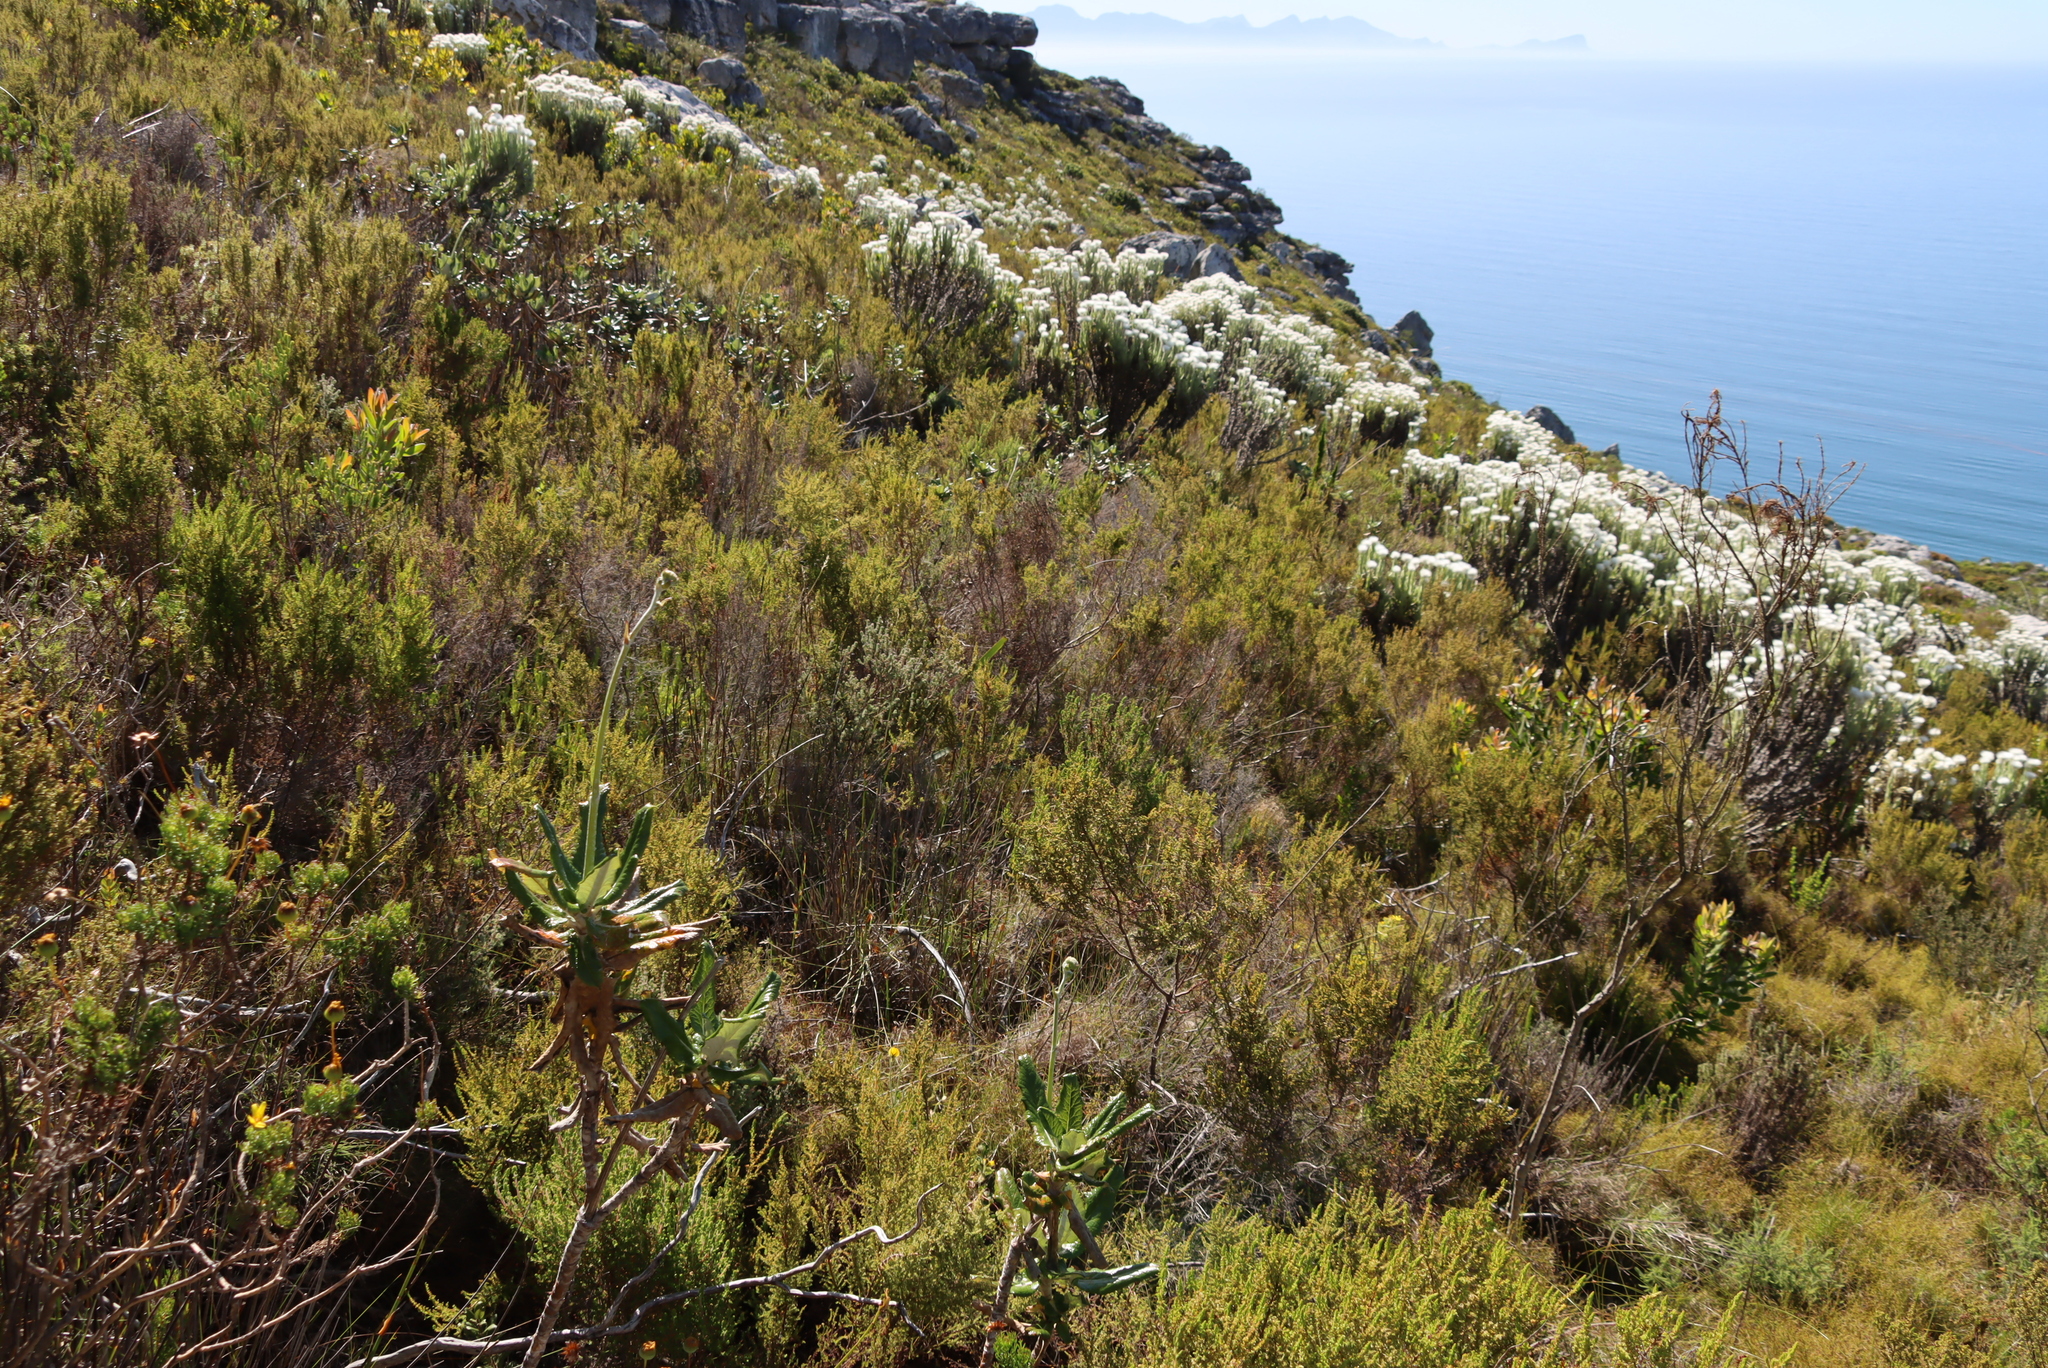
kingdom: Plantae
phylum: Tracheophyta
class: Magnoliopsida
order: Ericales
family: Ericaceae
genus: Erica
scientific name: Erica muscosa
